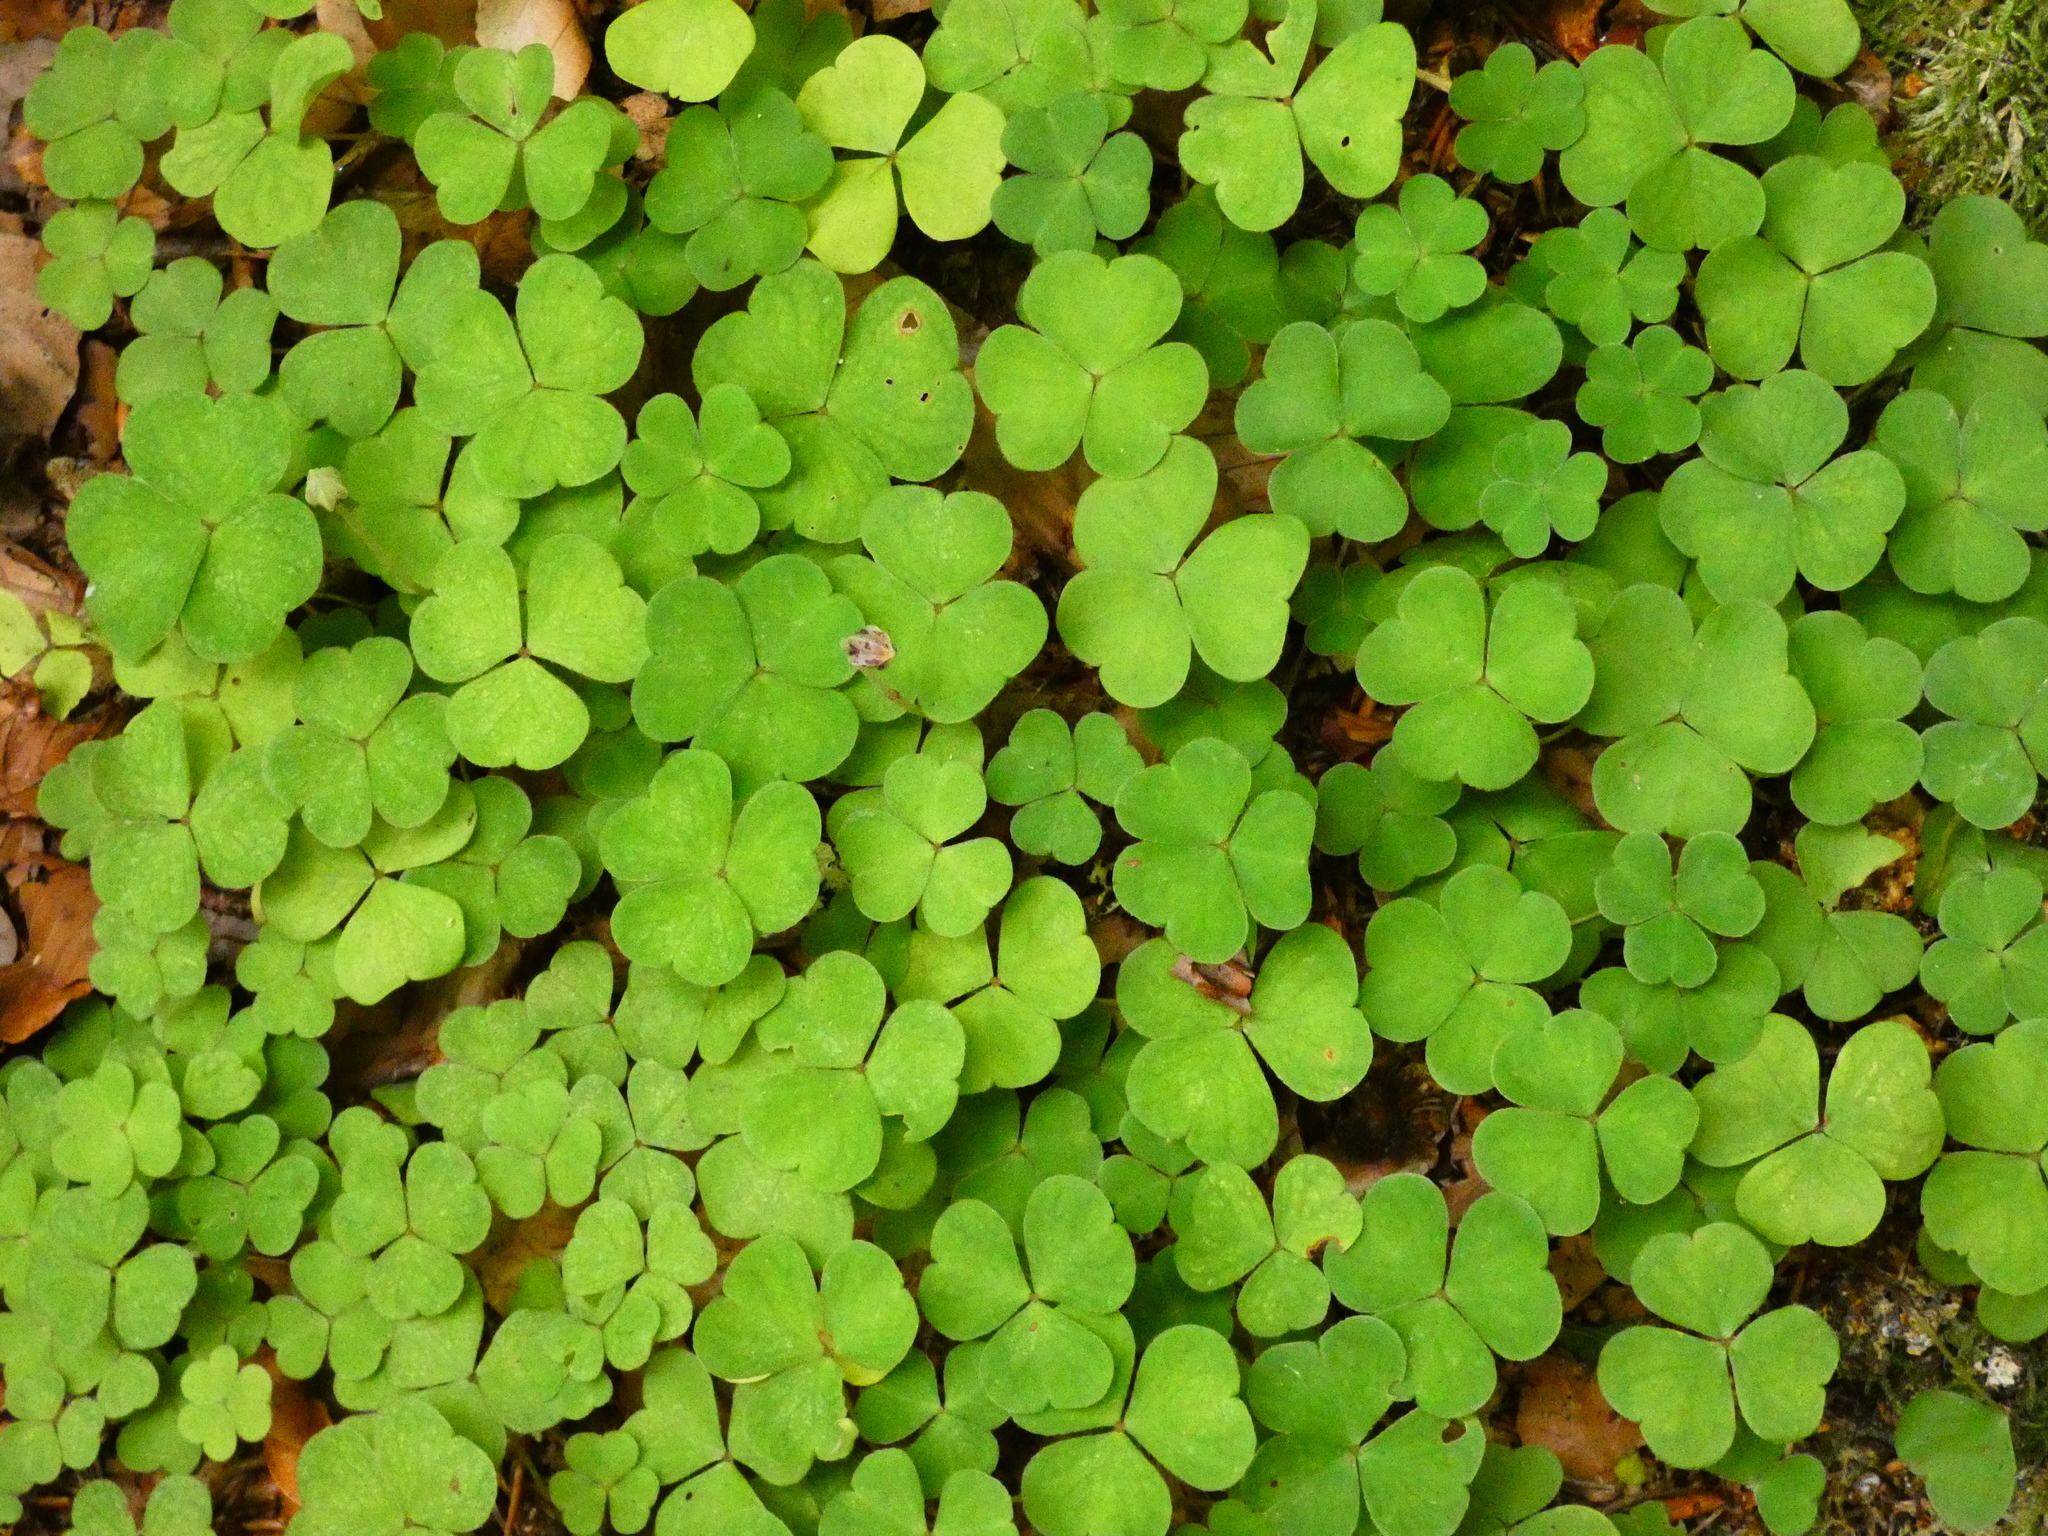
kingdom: Plantae
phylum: Tracheophyta
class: Magnoliopsida
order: Oxalidales
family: Oxalidaceae
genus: Oxalis
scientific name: Oxalis acetosella
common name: Wood-sorrel
